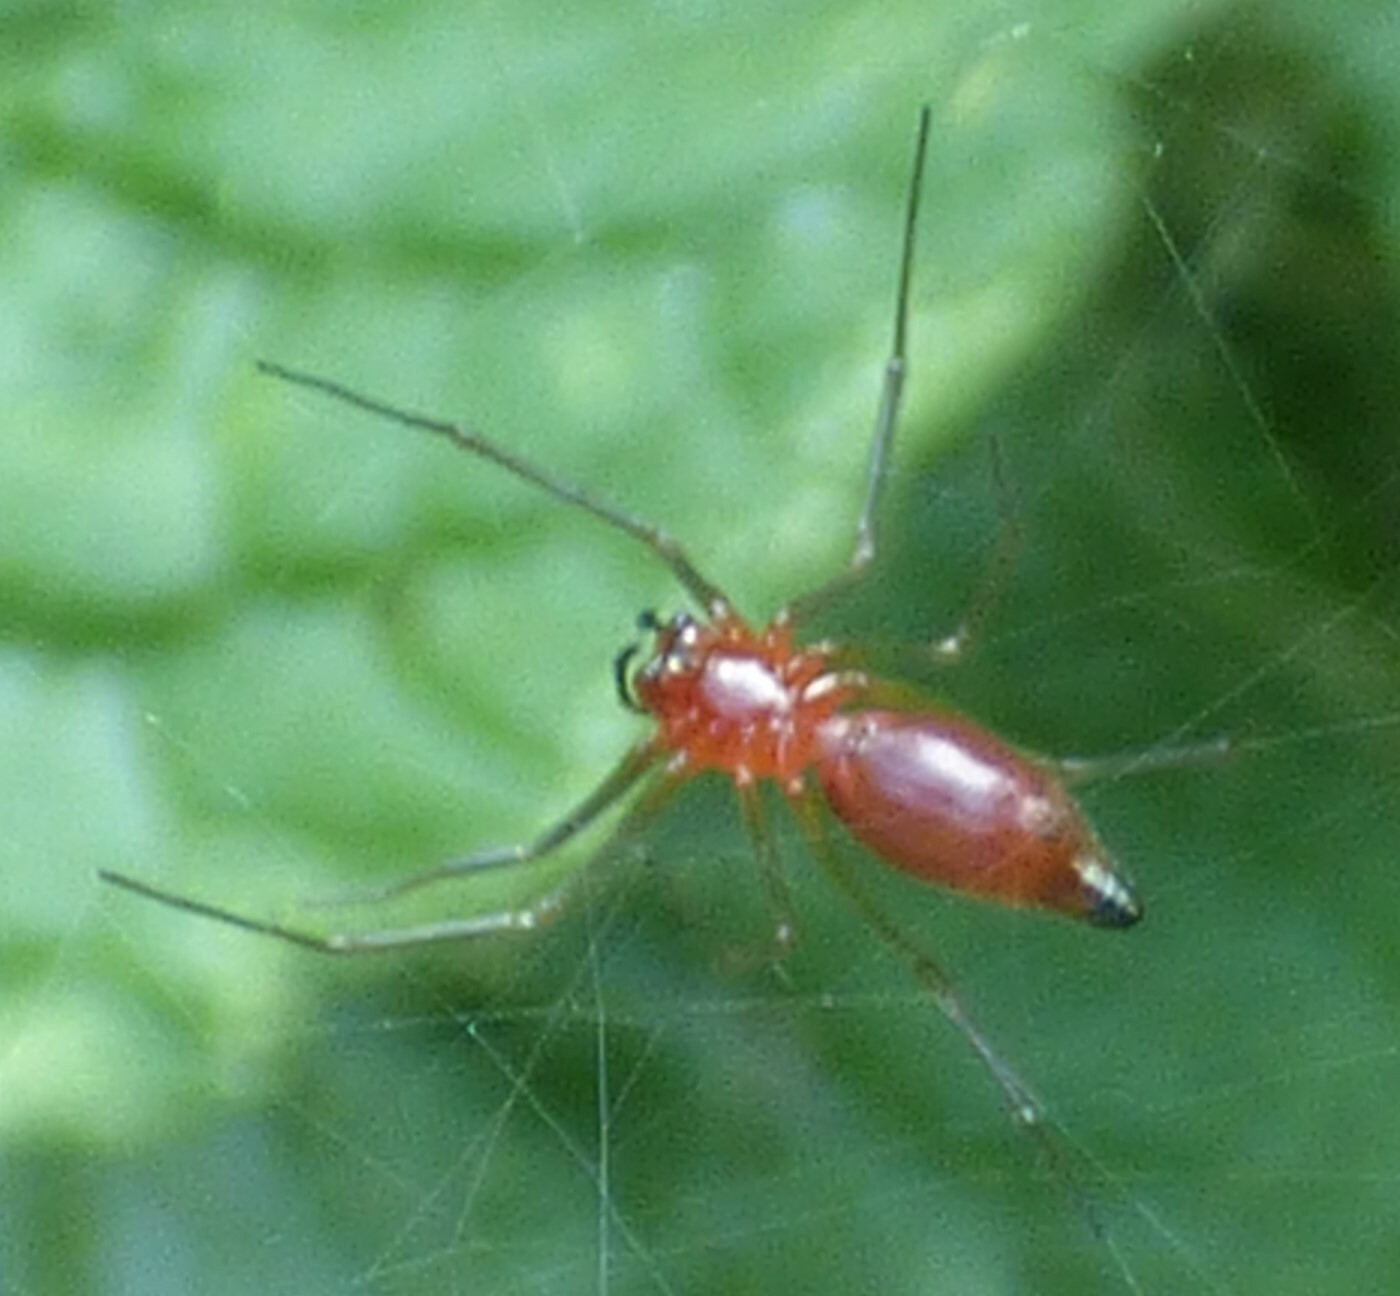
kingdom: Animalia
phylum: Arthropoda
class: Arachnida
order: Araneae
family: Linyphiidae
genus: Florinda
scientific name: Florinda coccinea
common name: Black-tailed red sheetweaver
